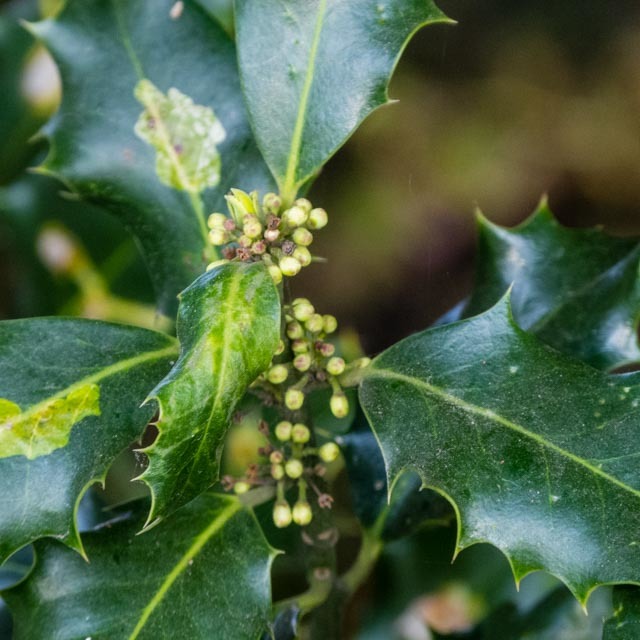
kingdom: Plantae
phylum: Tracheophyta
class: Magnoliopsida
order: Aquifoliales
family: Aquifoliaceae
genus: Ilex
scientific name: Ilex aquifolium
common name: English holly
